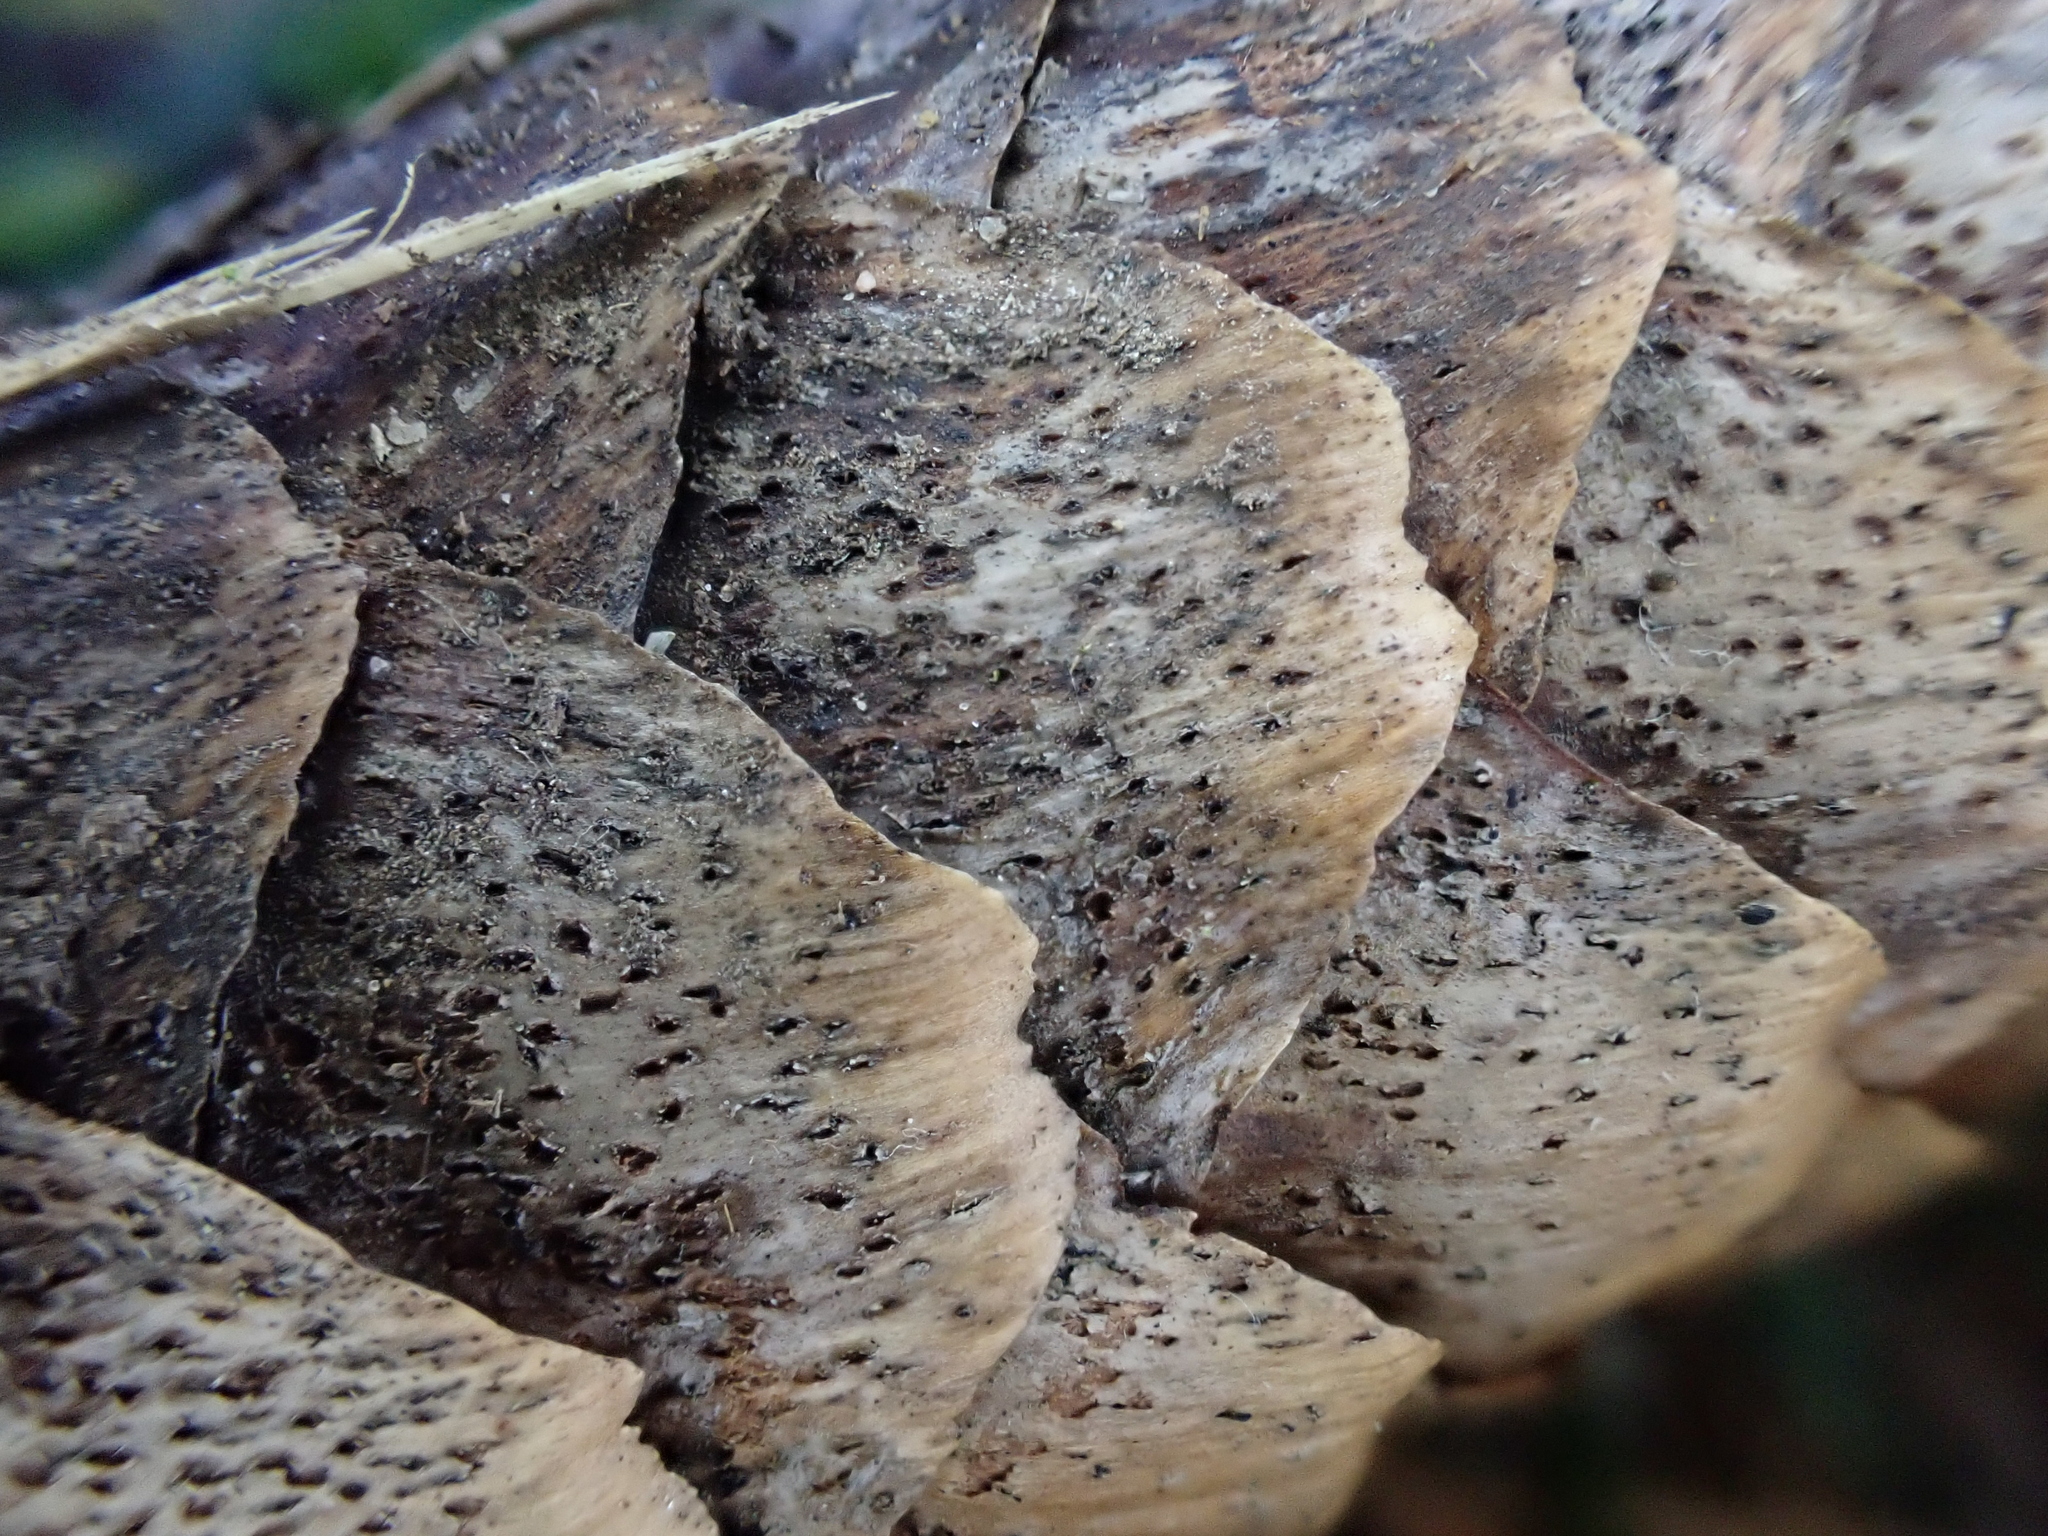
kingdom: Fungi
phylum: Ascomycota
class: Dothideomycetes
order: Pleosporales
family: Melanommataceae
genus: Phragmotrichum
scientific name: Phragmotrichum chailletii
